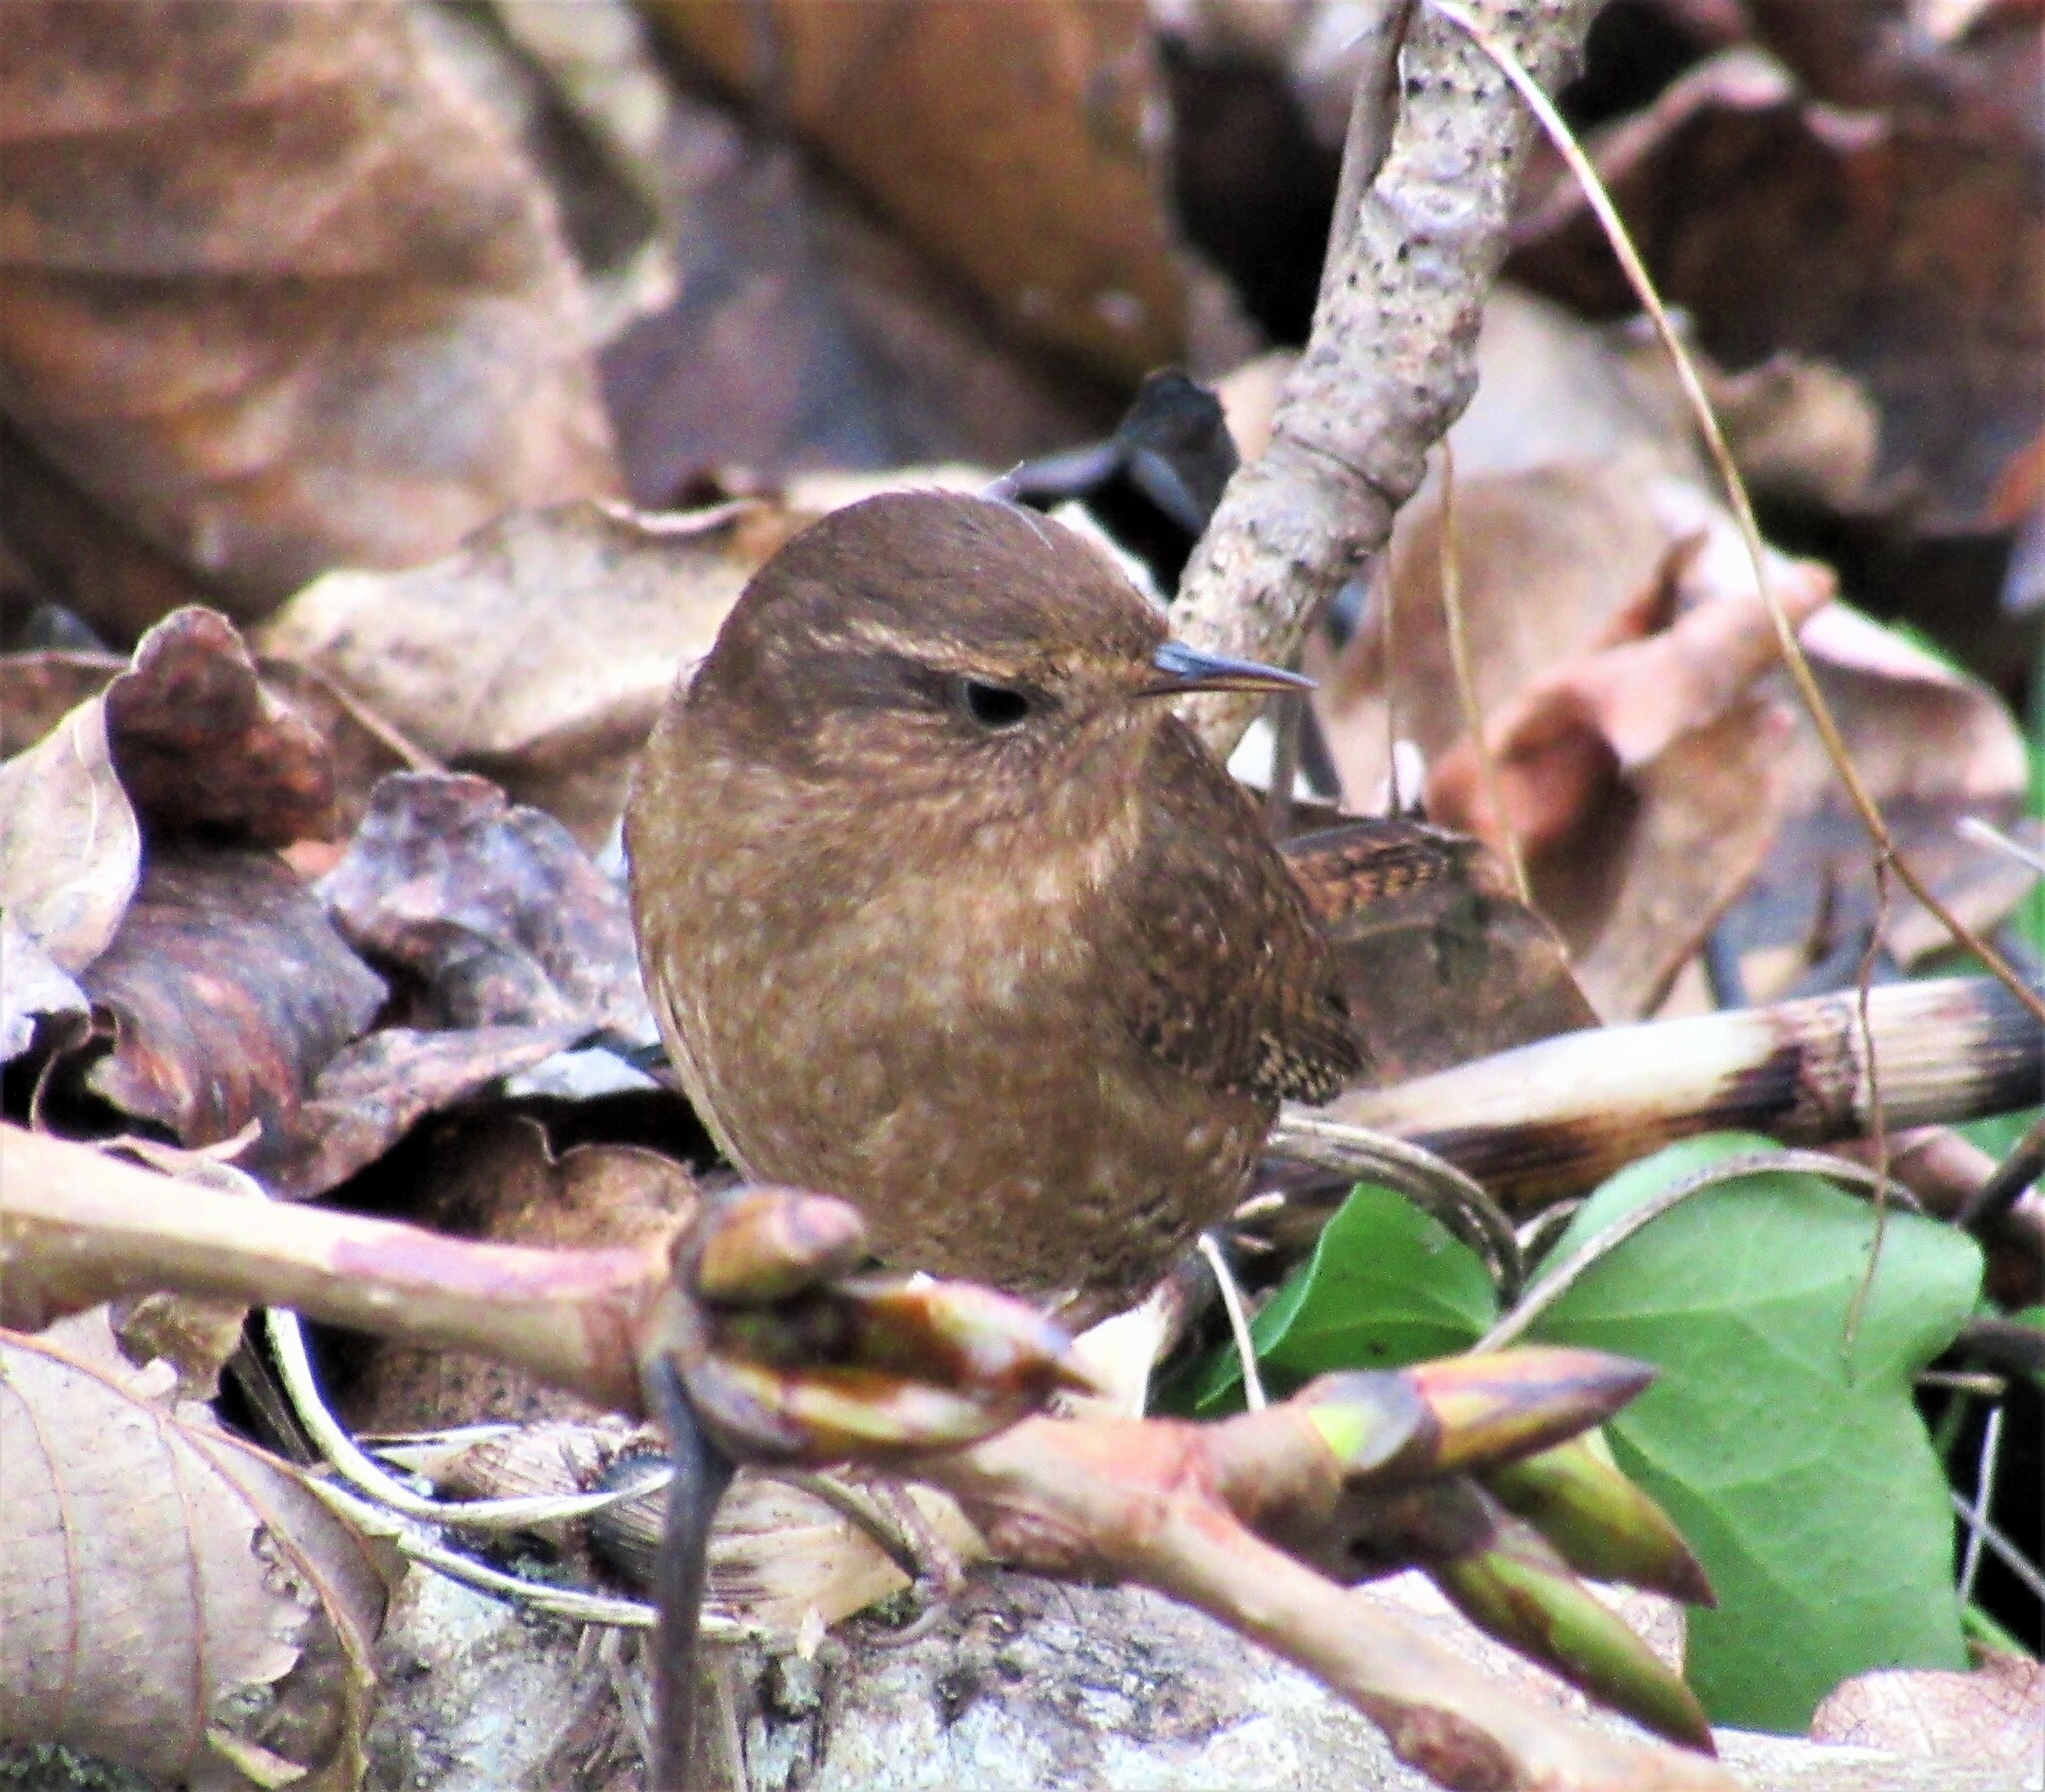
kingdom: Animalia
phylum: Chordata
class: Aves
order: Passeriformes
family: Troglodytidae
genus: Troglodytes
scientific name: Troglodytes pacificus
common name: Pacific wren
